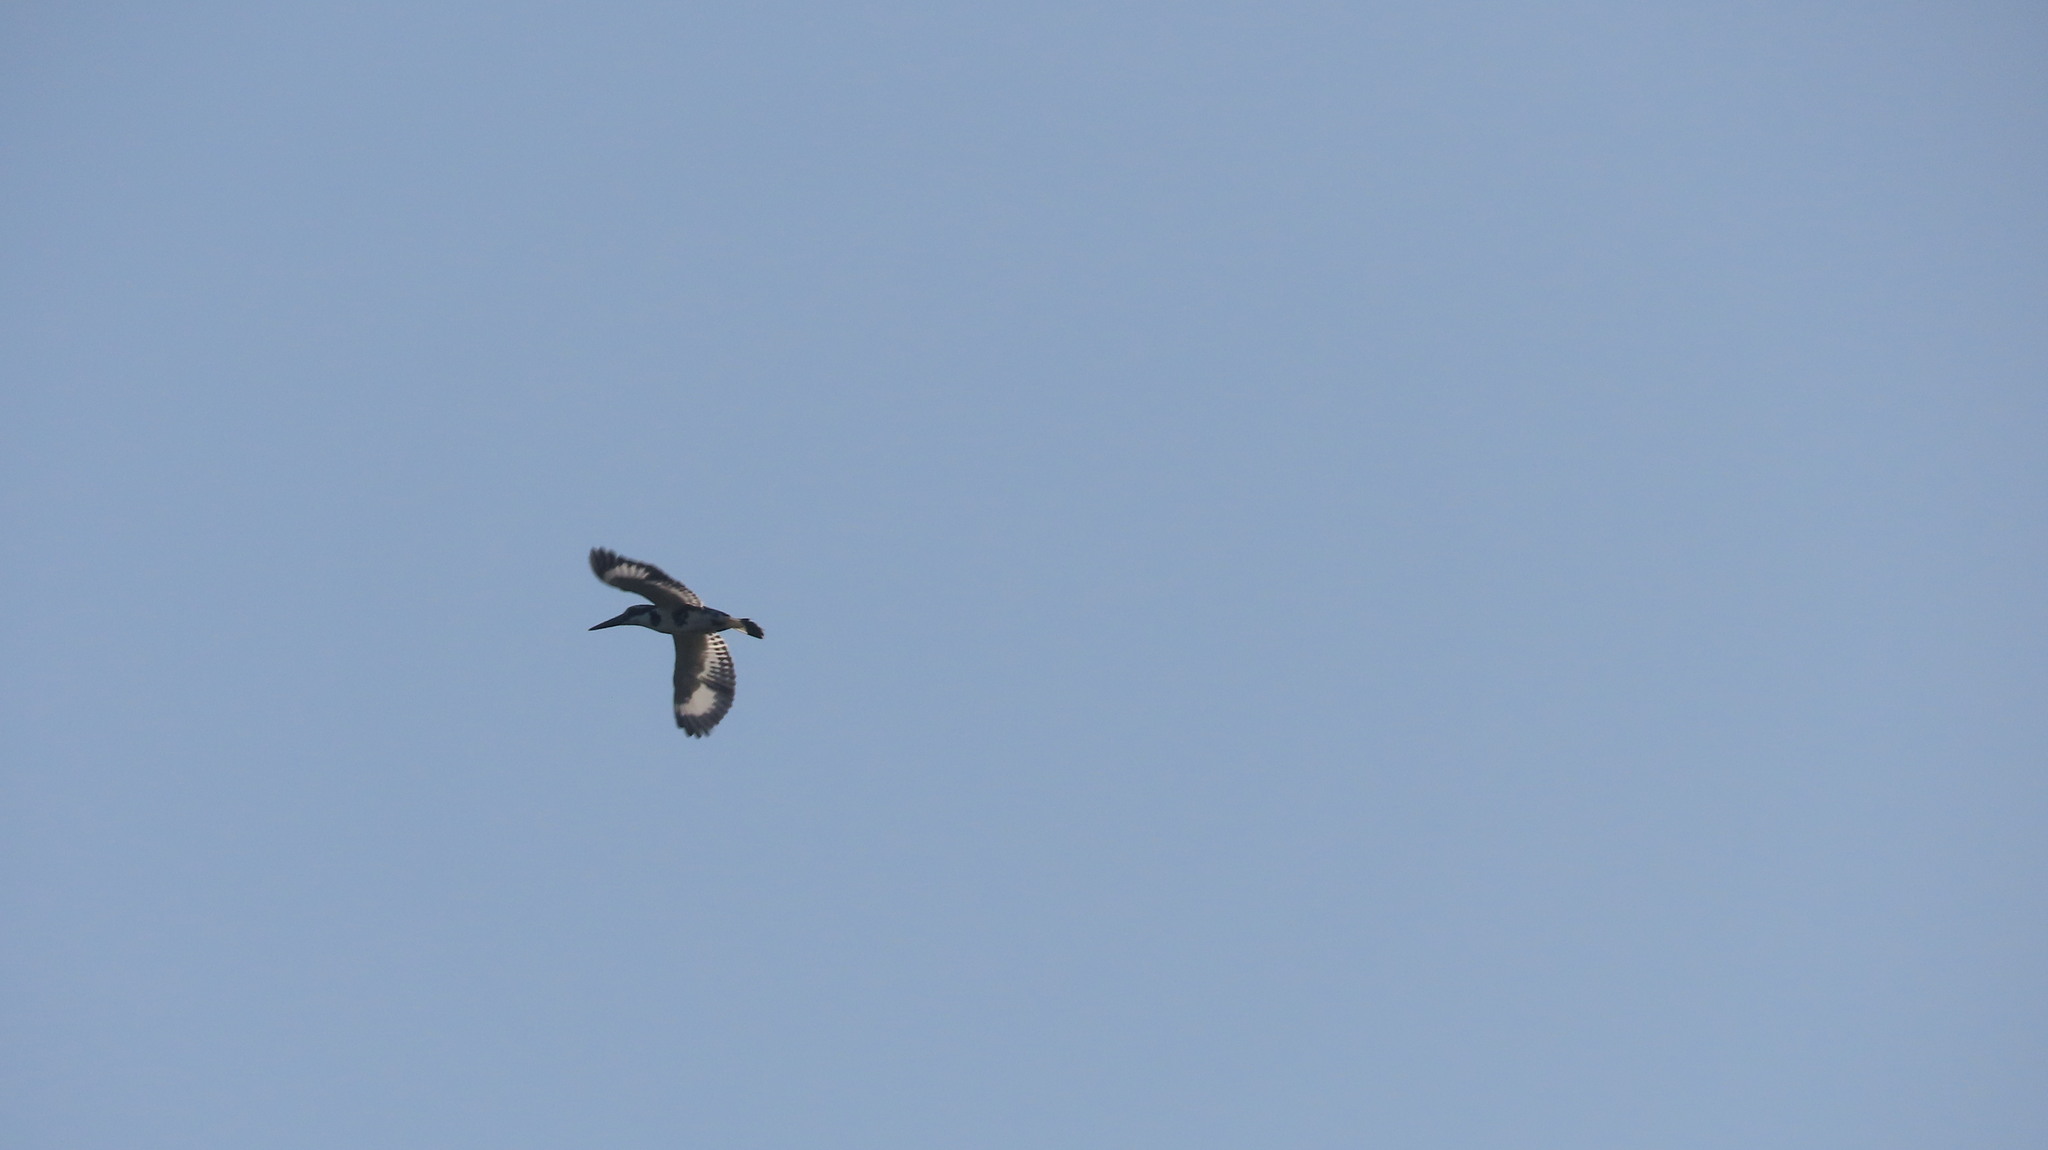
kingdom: Animalia
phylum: Chordata
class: Aves
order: Coraciiformes
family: Alcedinidae
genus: Ceryle
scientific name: Ceryle rudis
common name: Pied kingfisher
